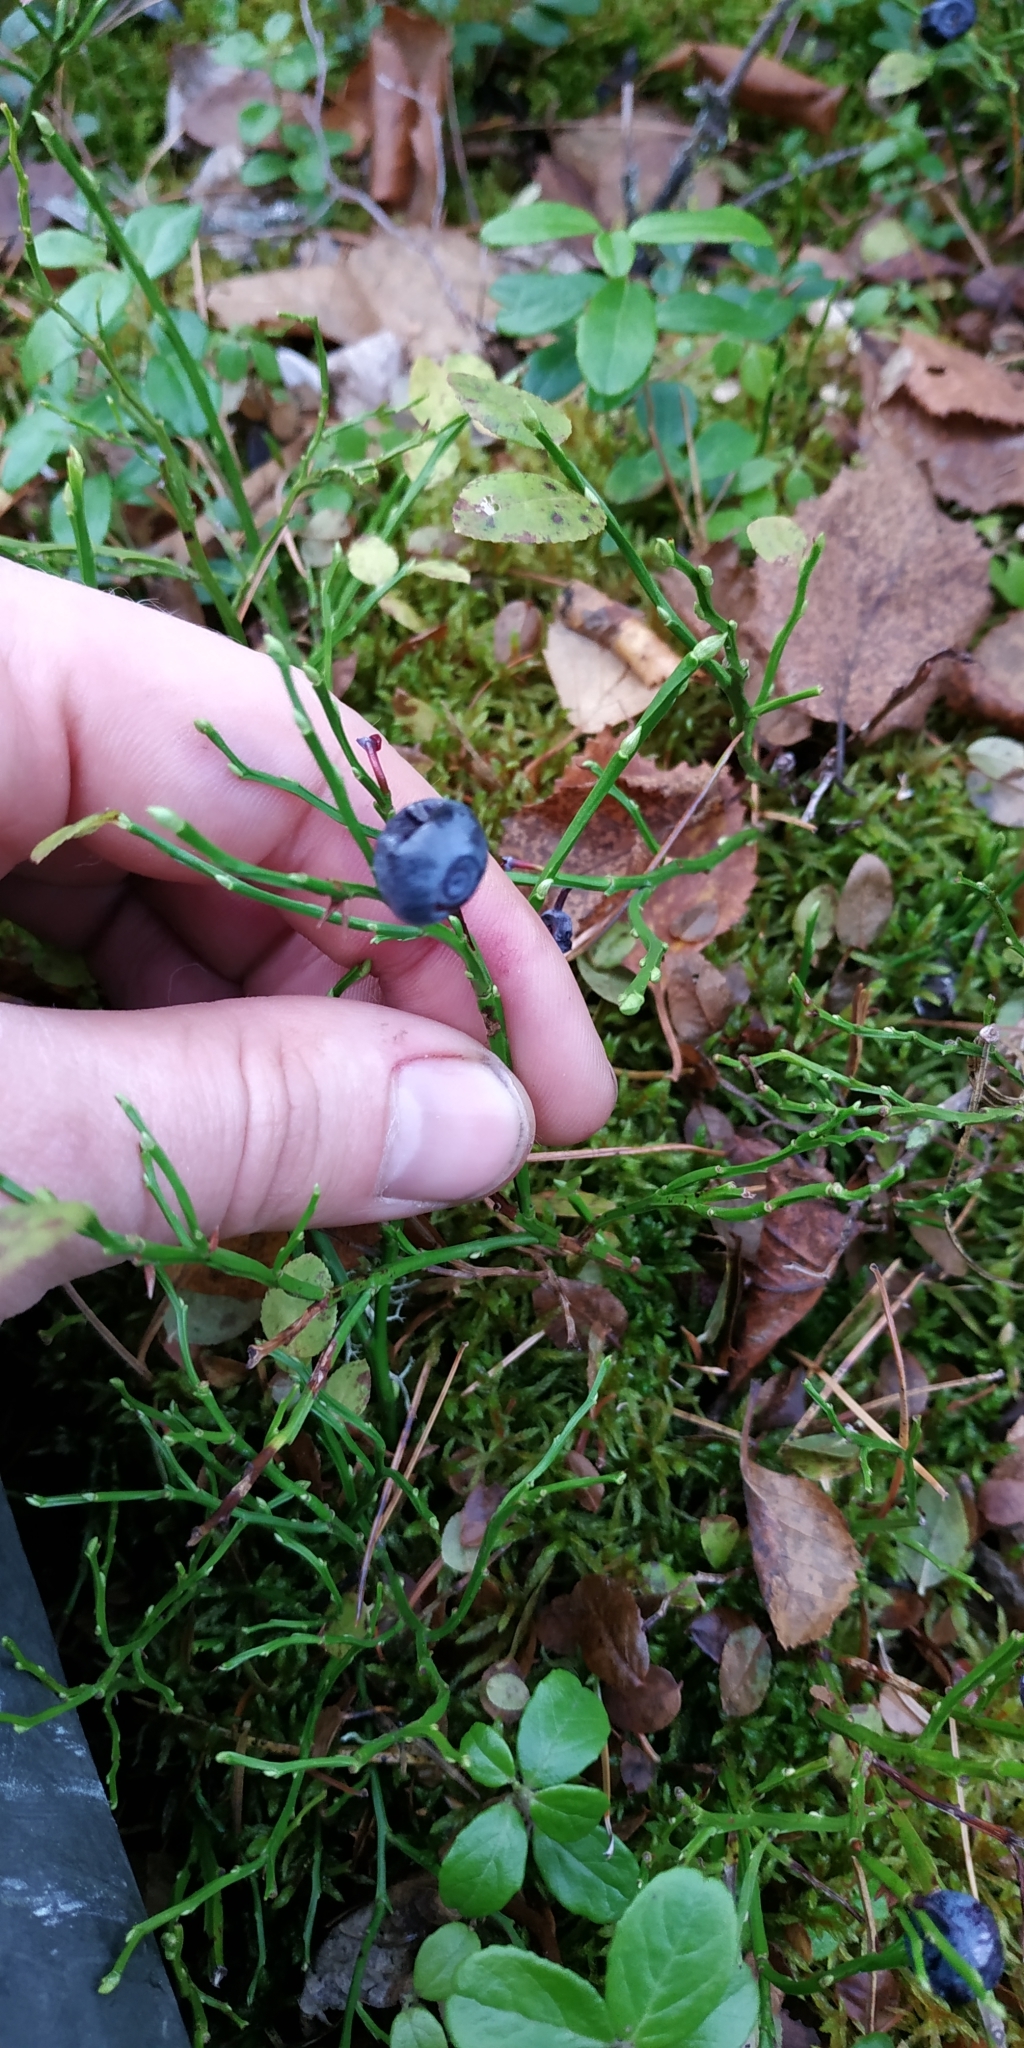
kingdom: Plantae
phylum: Tracheophyta
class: Magnoliopsida
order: Ericales
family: Ericaceae
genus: Vaccinium
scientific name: Vaccinium myrtillus
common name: Bilberry
